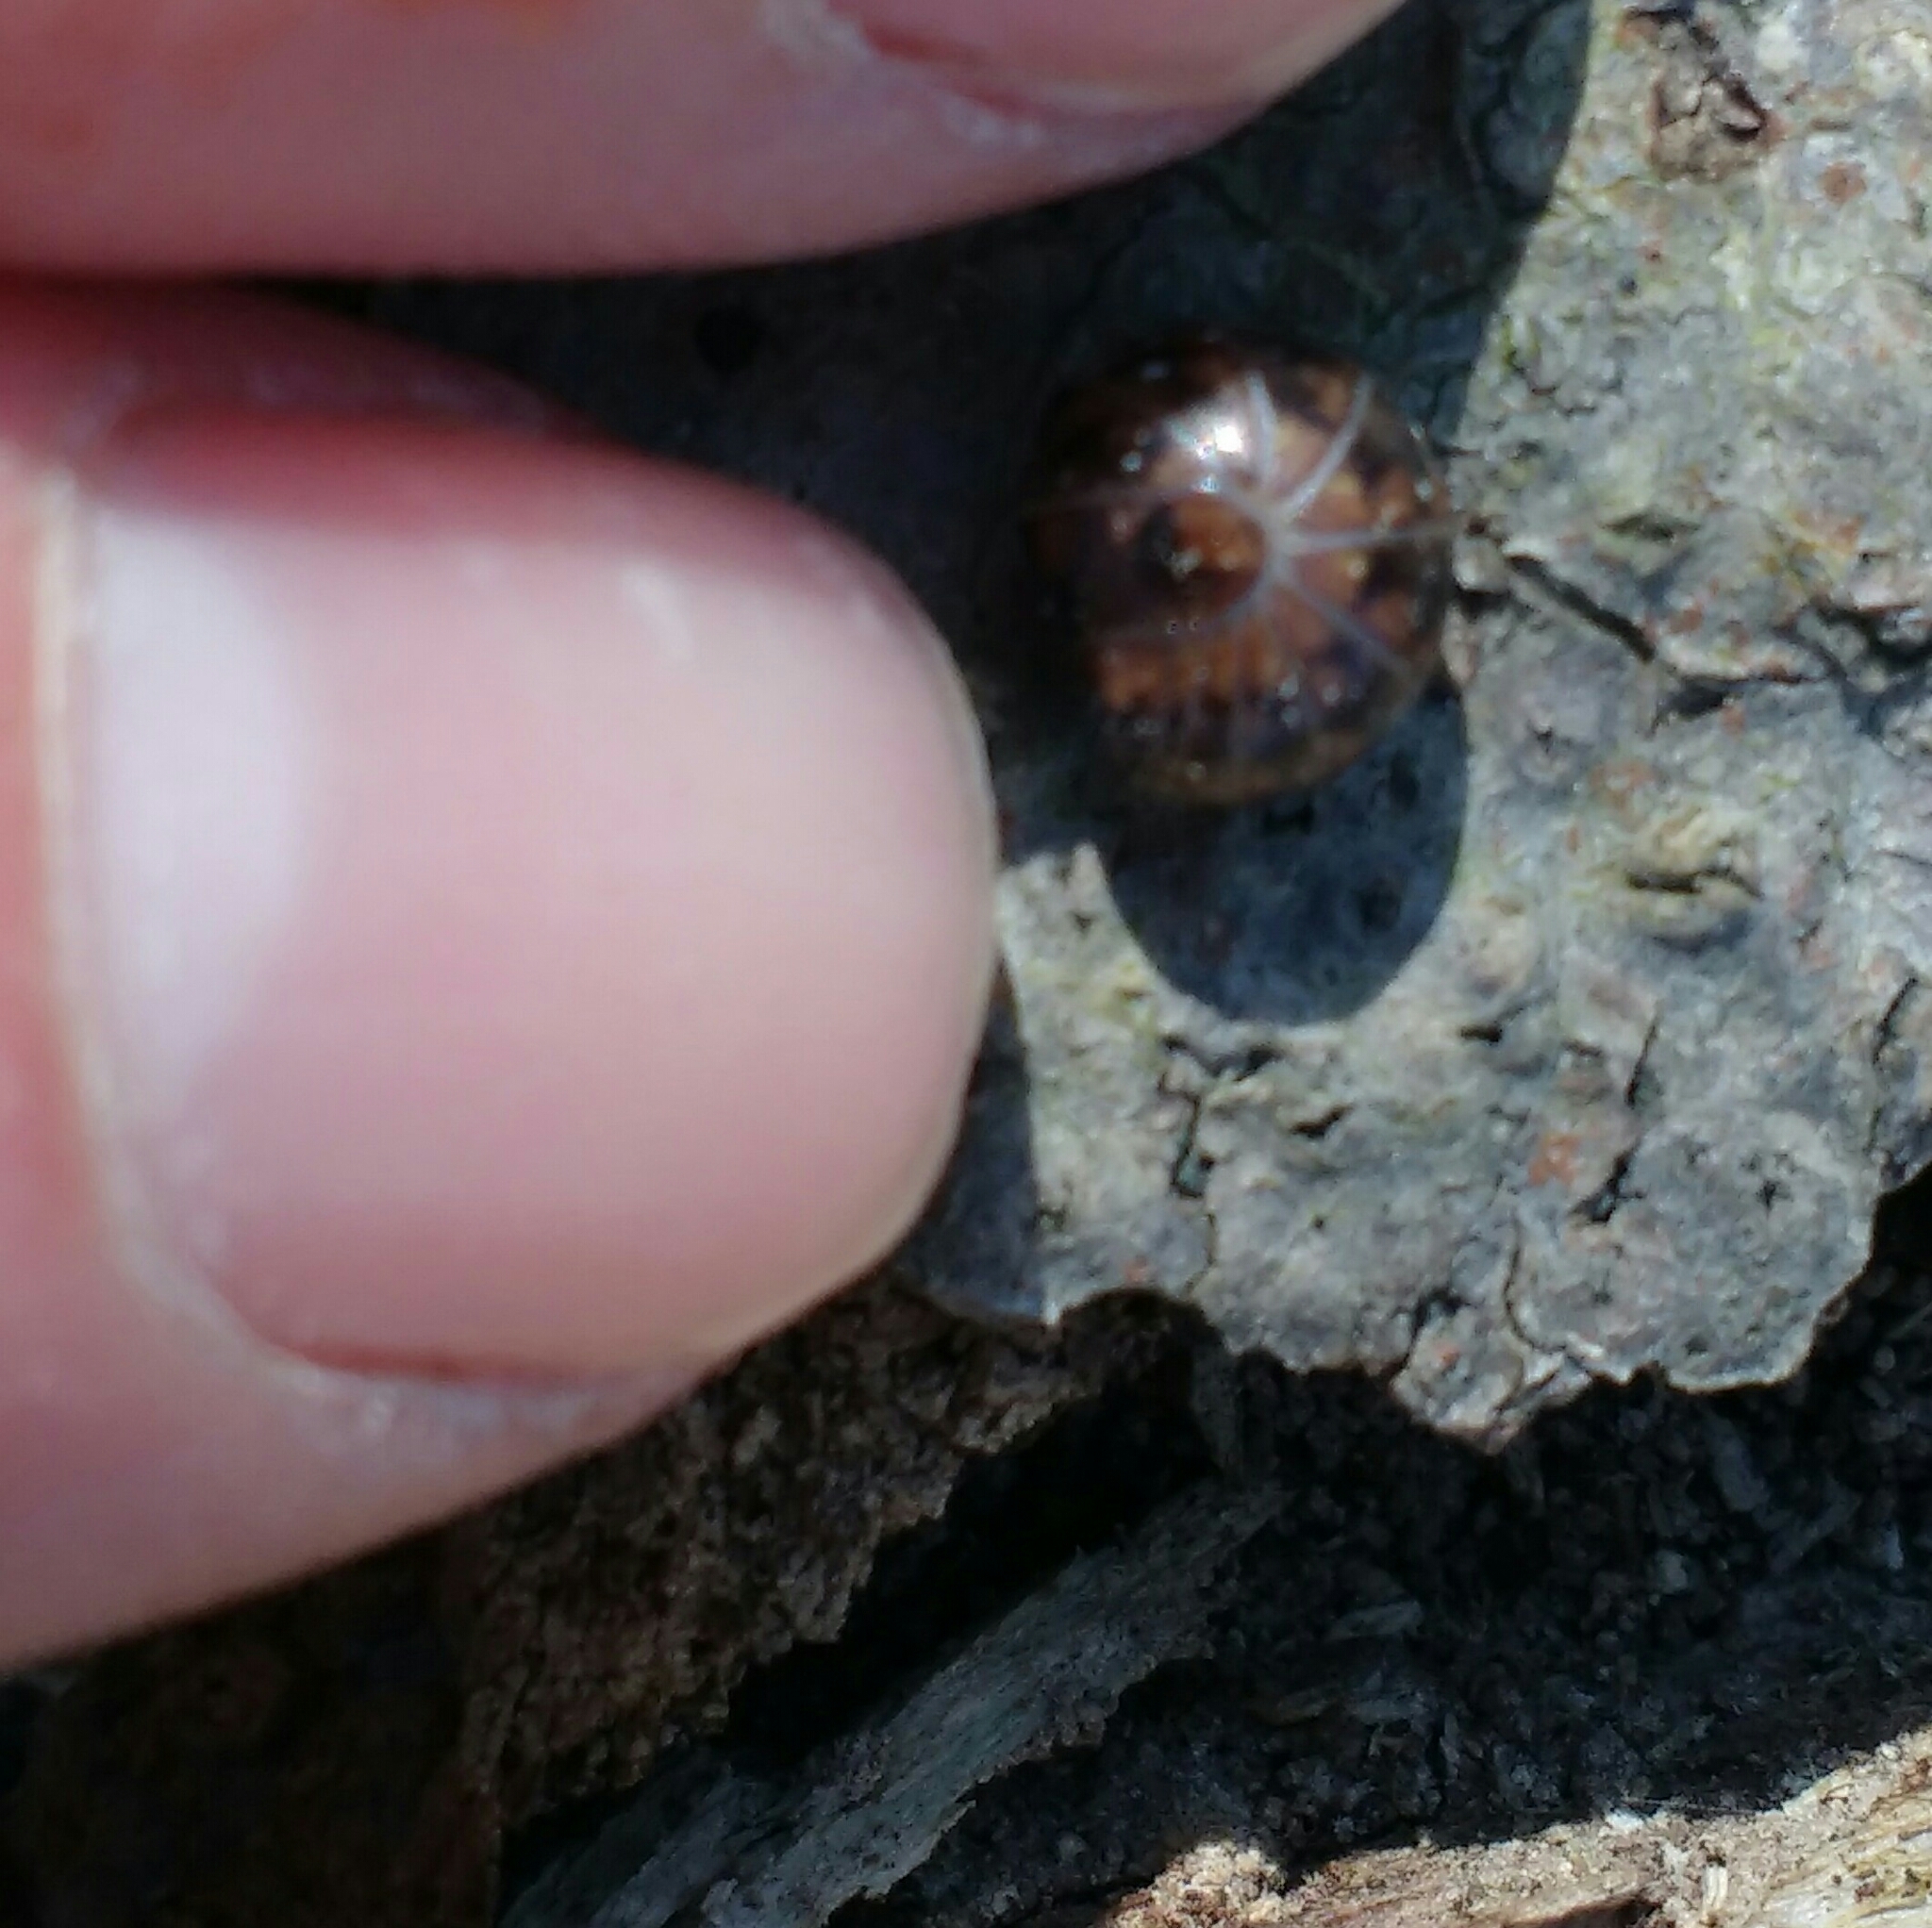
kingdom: Animalia
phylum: Arthropoda
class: Diplopoda
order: Glomerida
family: Glomeridae
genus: Haploglomeris
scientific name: Haploglomeris multistriata
